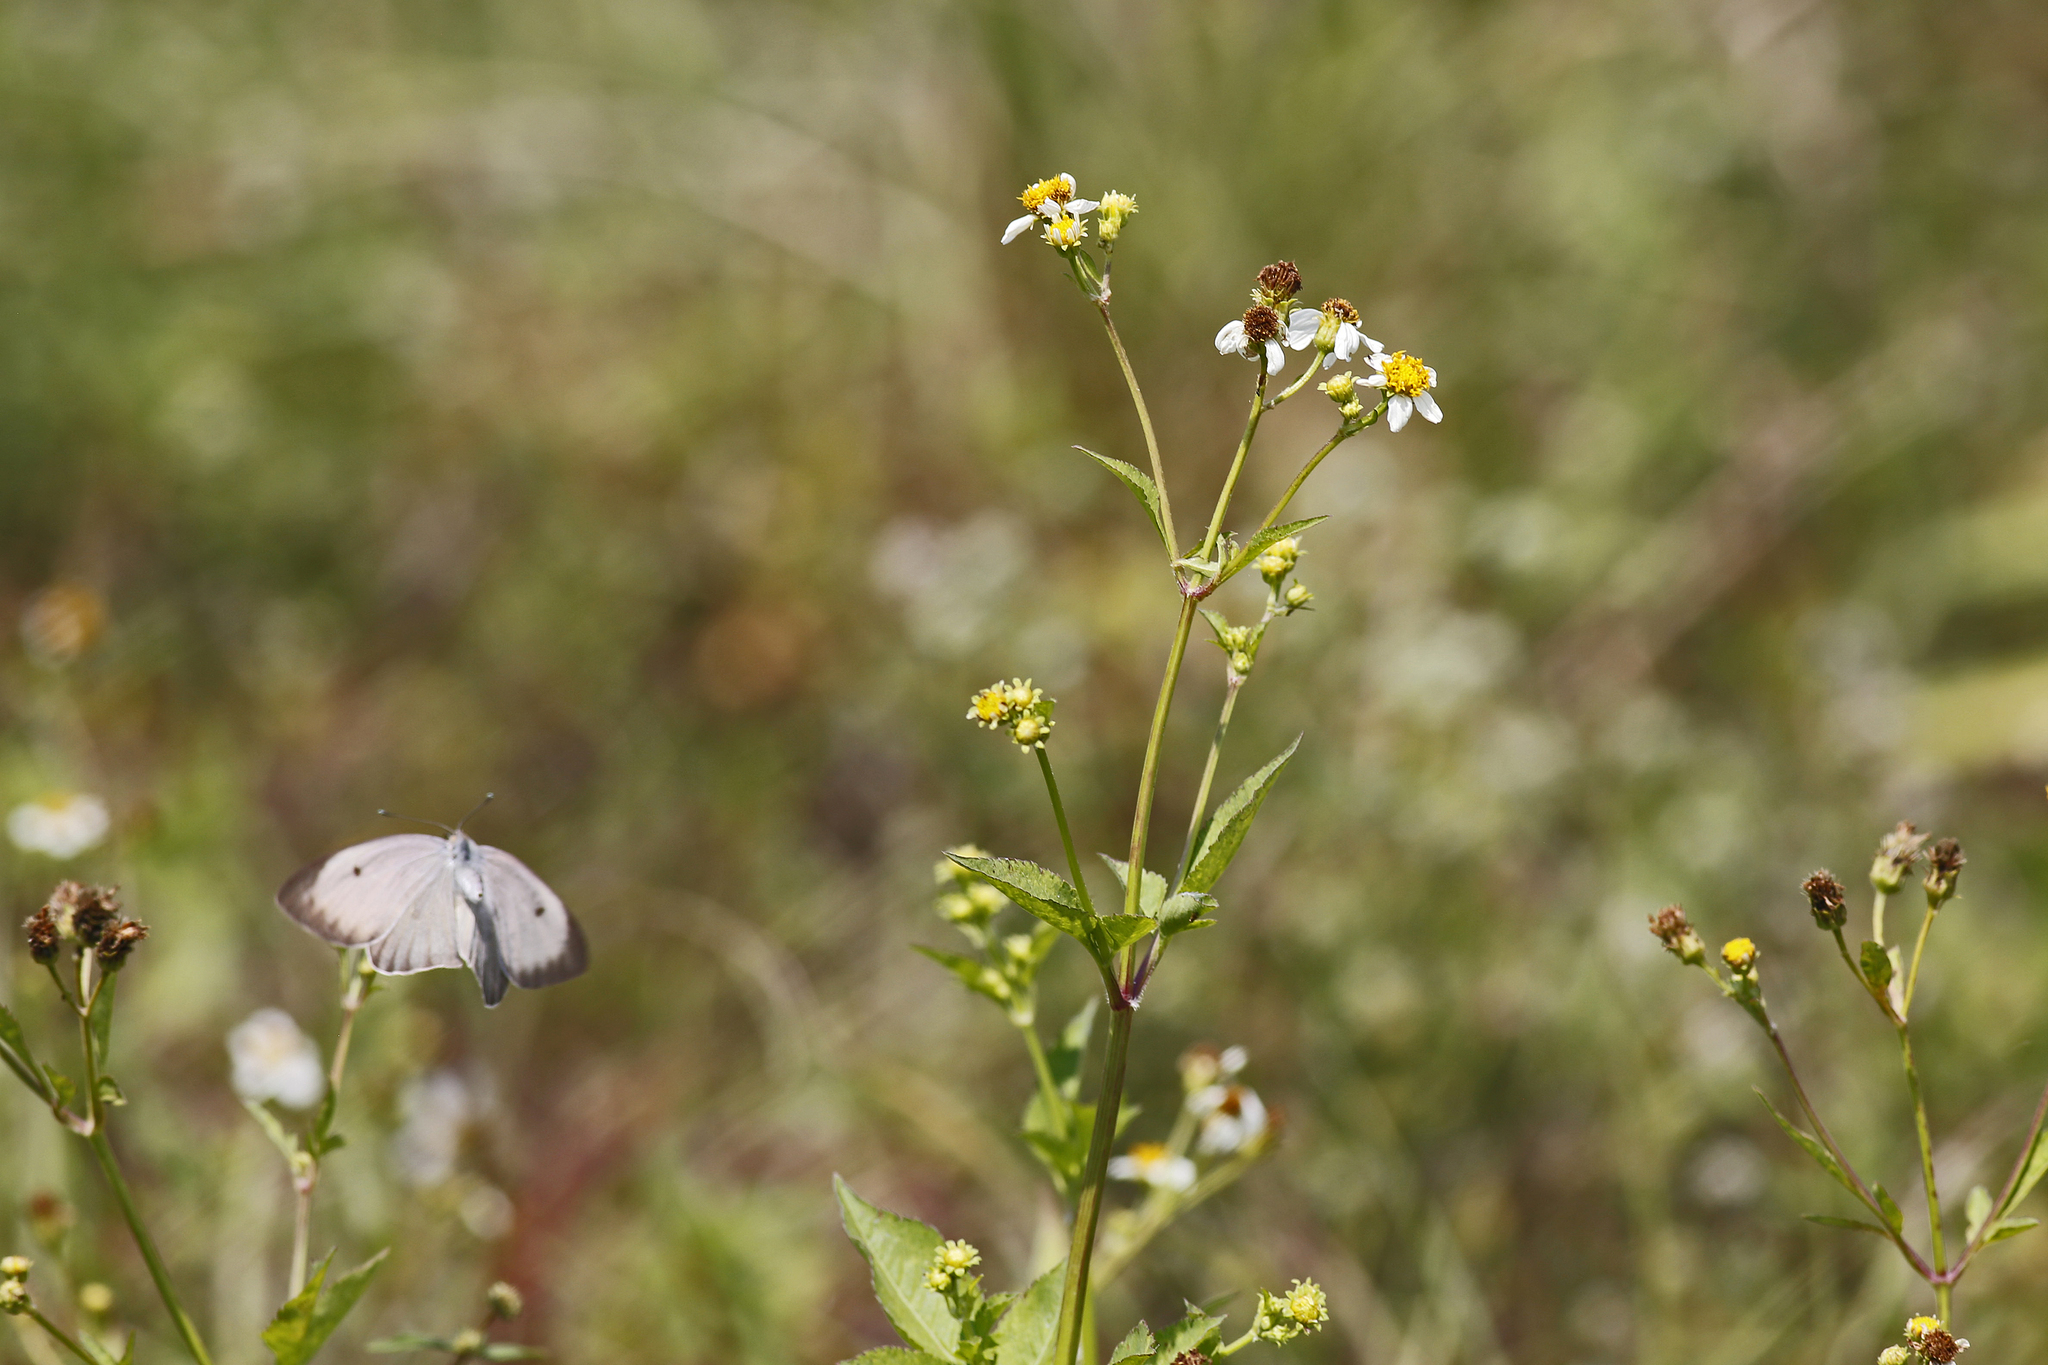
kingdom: Plantae
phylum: Tracheophyta
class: Magnoliopsida
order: Asterales
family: Asteraceae
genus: Bidens
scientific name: Bidens alba
